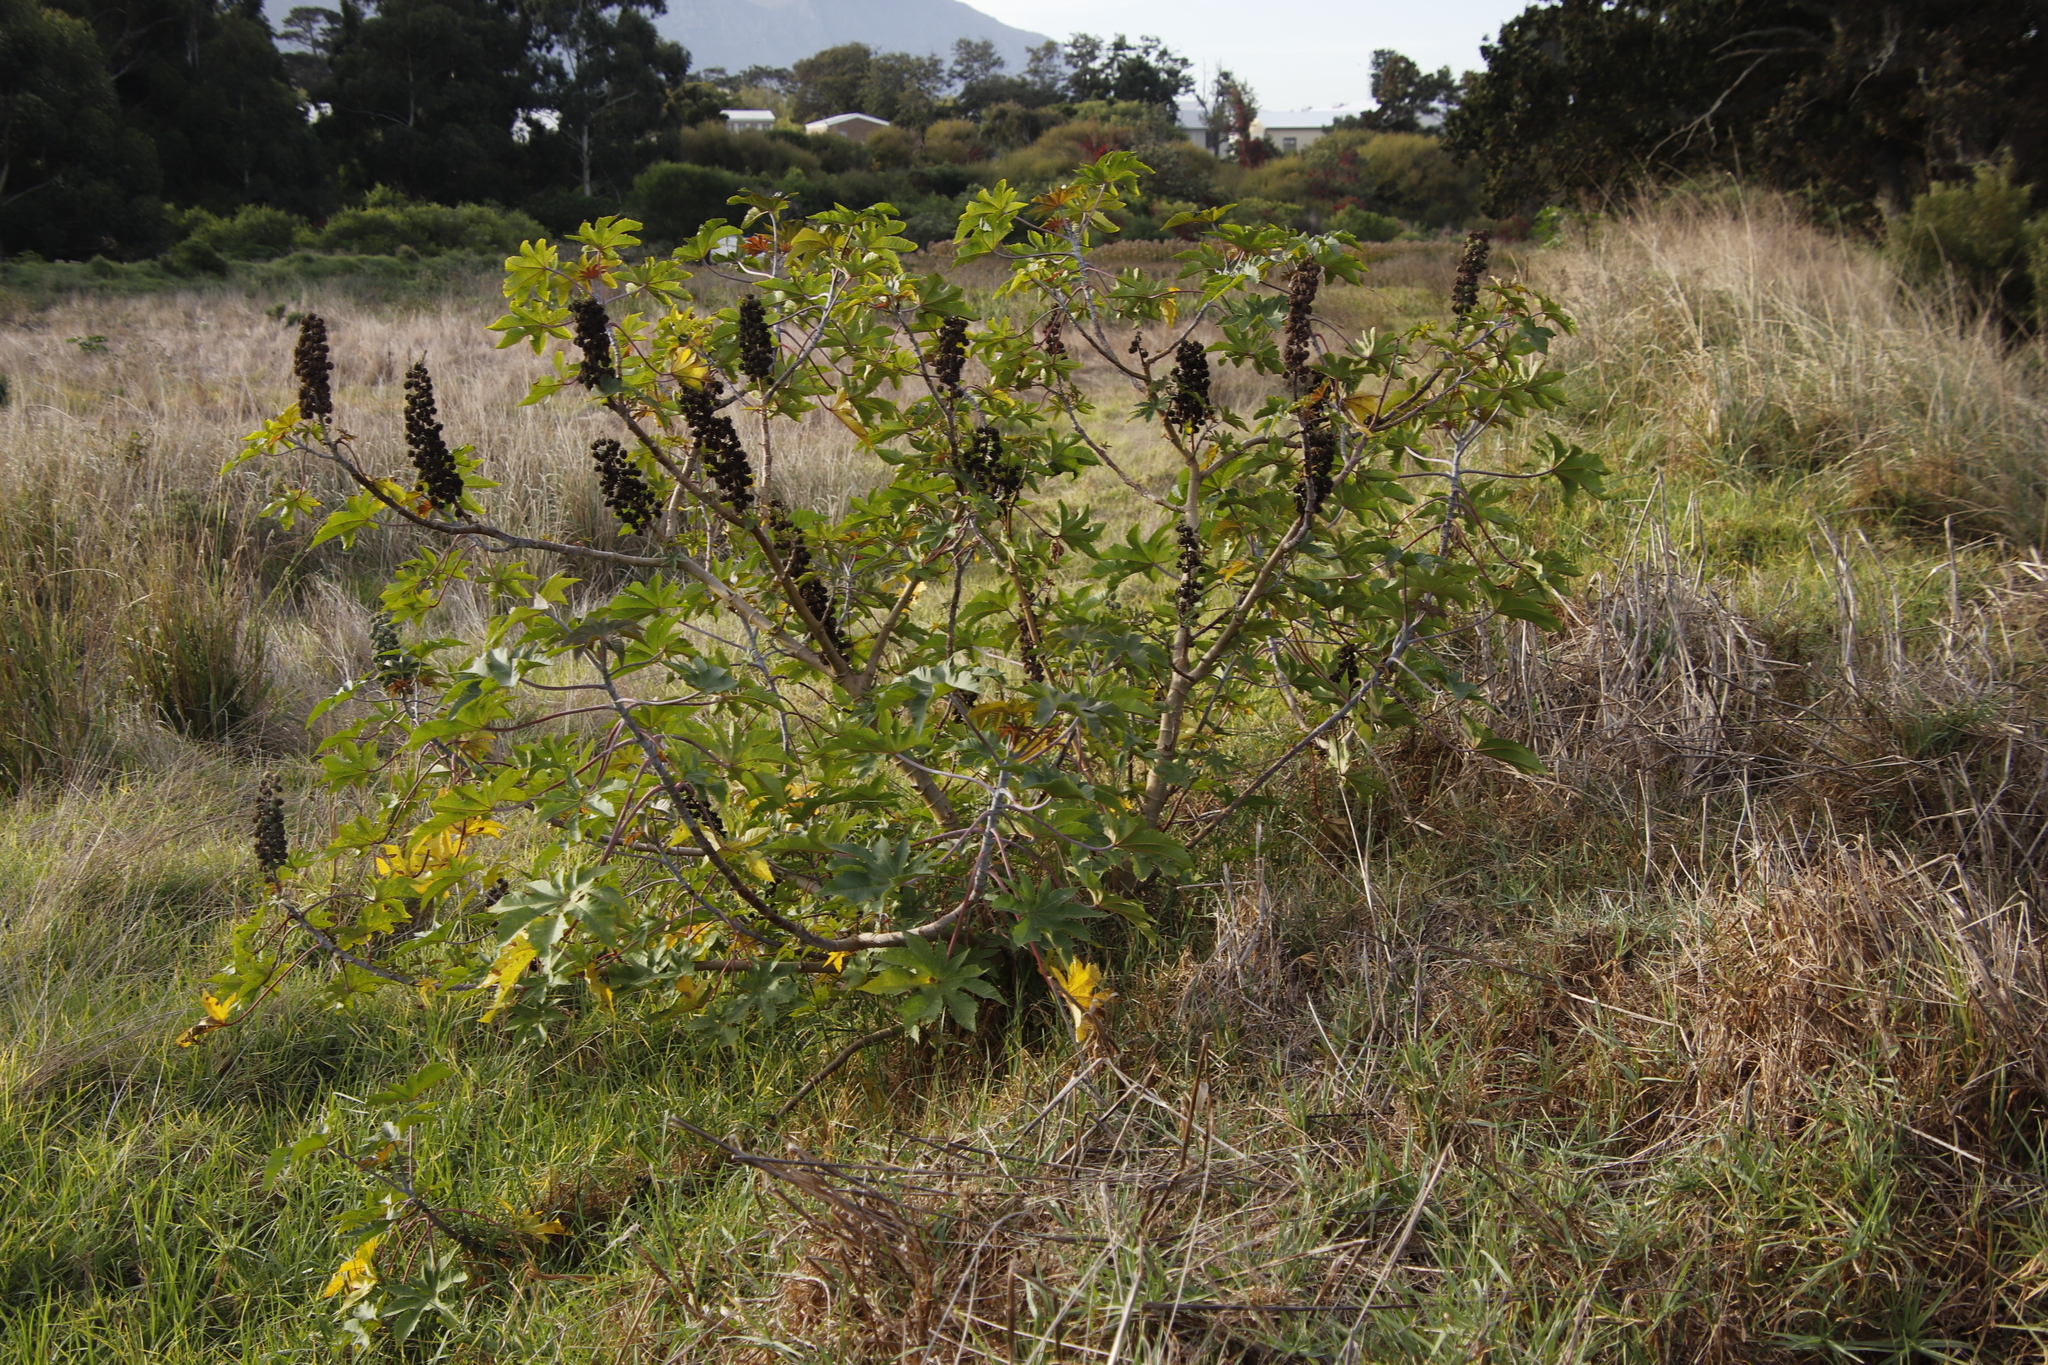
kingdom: Plantae
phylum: Tracheophyta
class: Magnoliopsida
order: Malpighiales
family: Euphorbiaceae
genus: Ricinus
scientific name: Ricinus communis
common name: Castor-oil-plant
